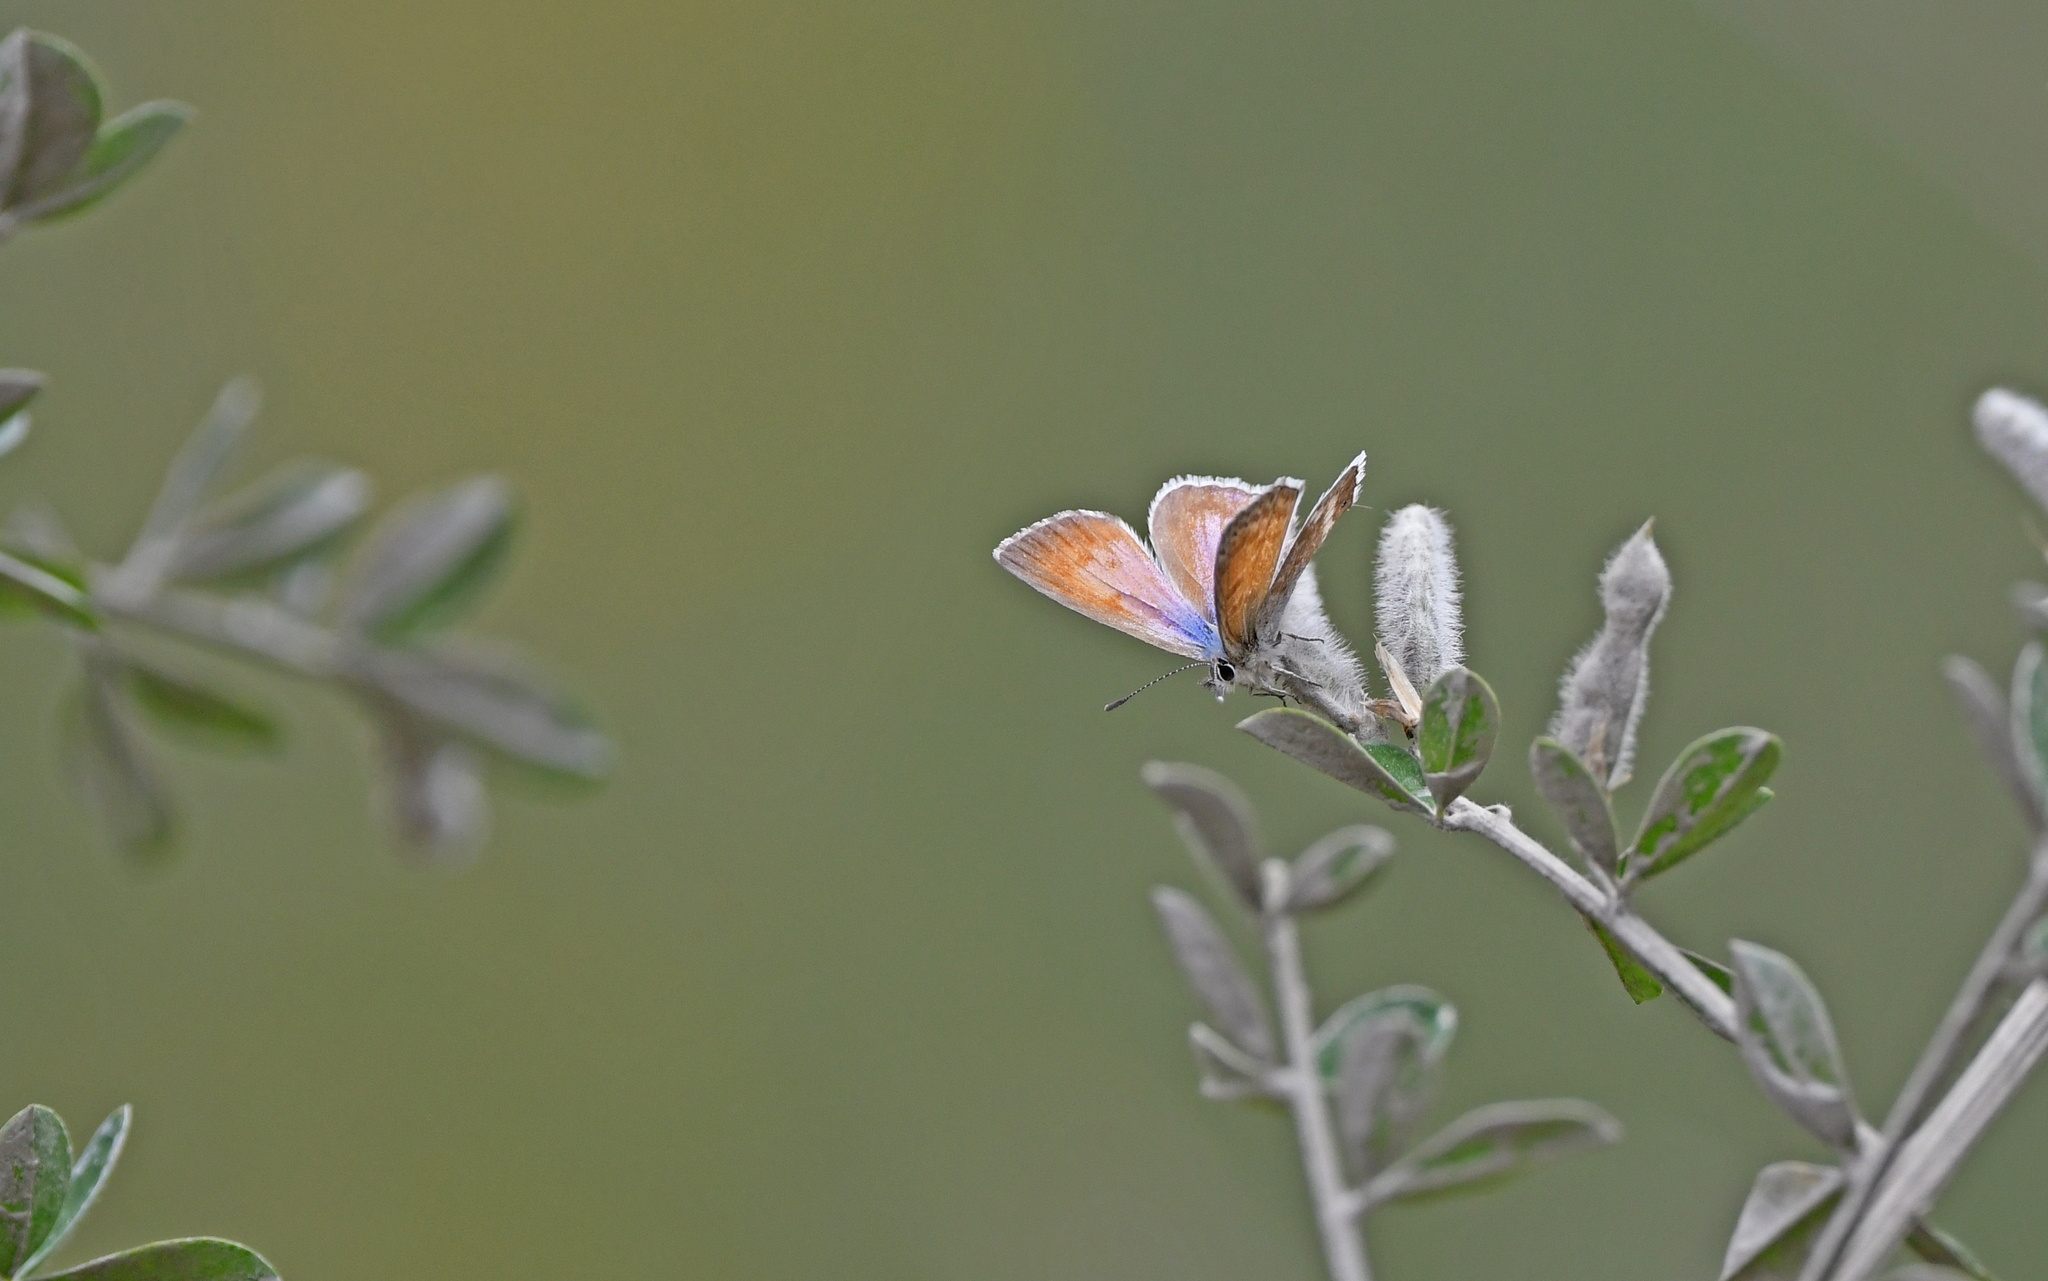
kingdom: Animalia
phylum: Arthropoda
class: Insecta
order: Lepidoptera
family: Lycaenidae
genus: Leptotes
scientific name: Leptotes callanga
